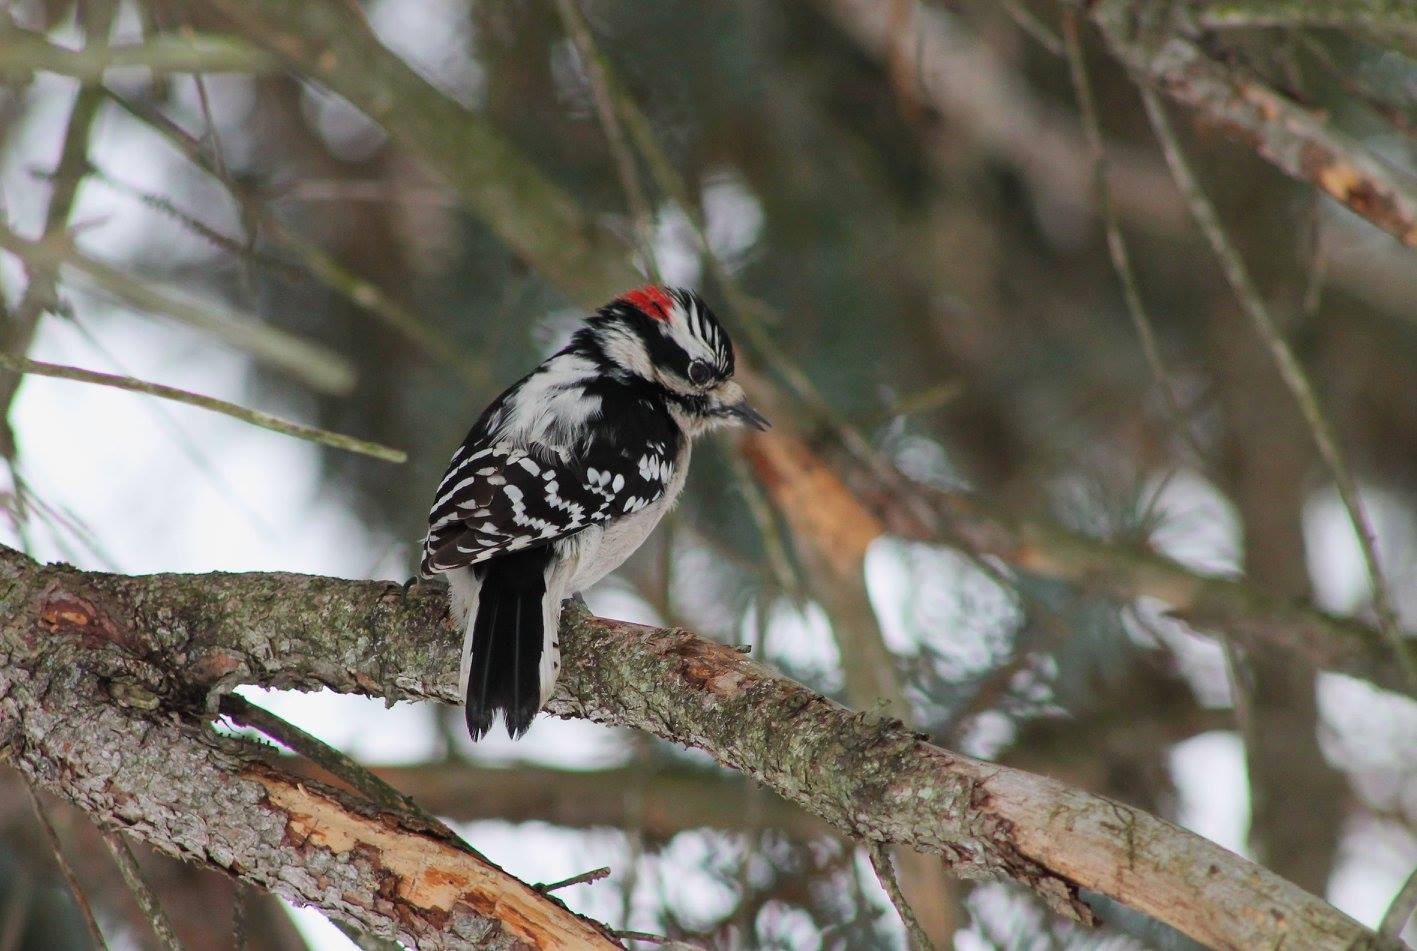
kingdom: Animalia
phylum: Chordata
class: Aves
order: Piciformes
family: Picidae
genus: Dryobates
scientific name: Dryobates pubescens
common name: Downy woodpecker
